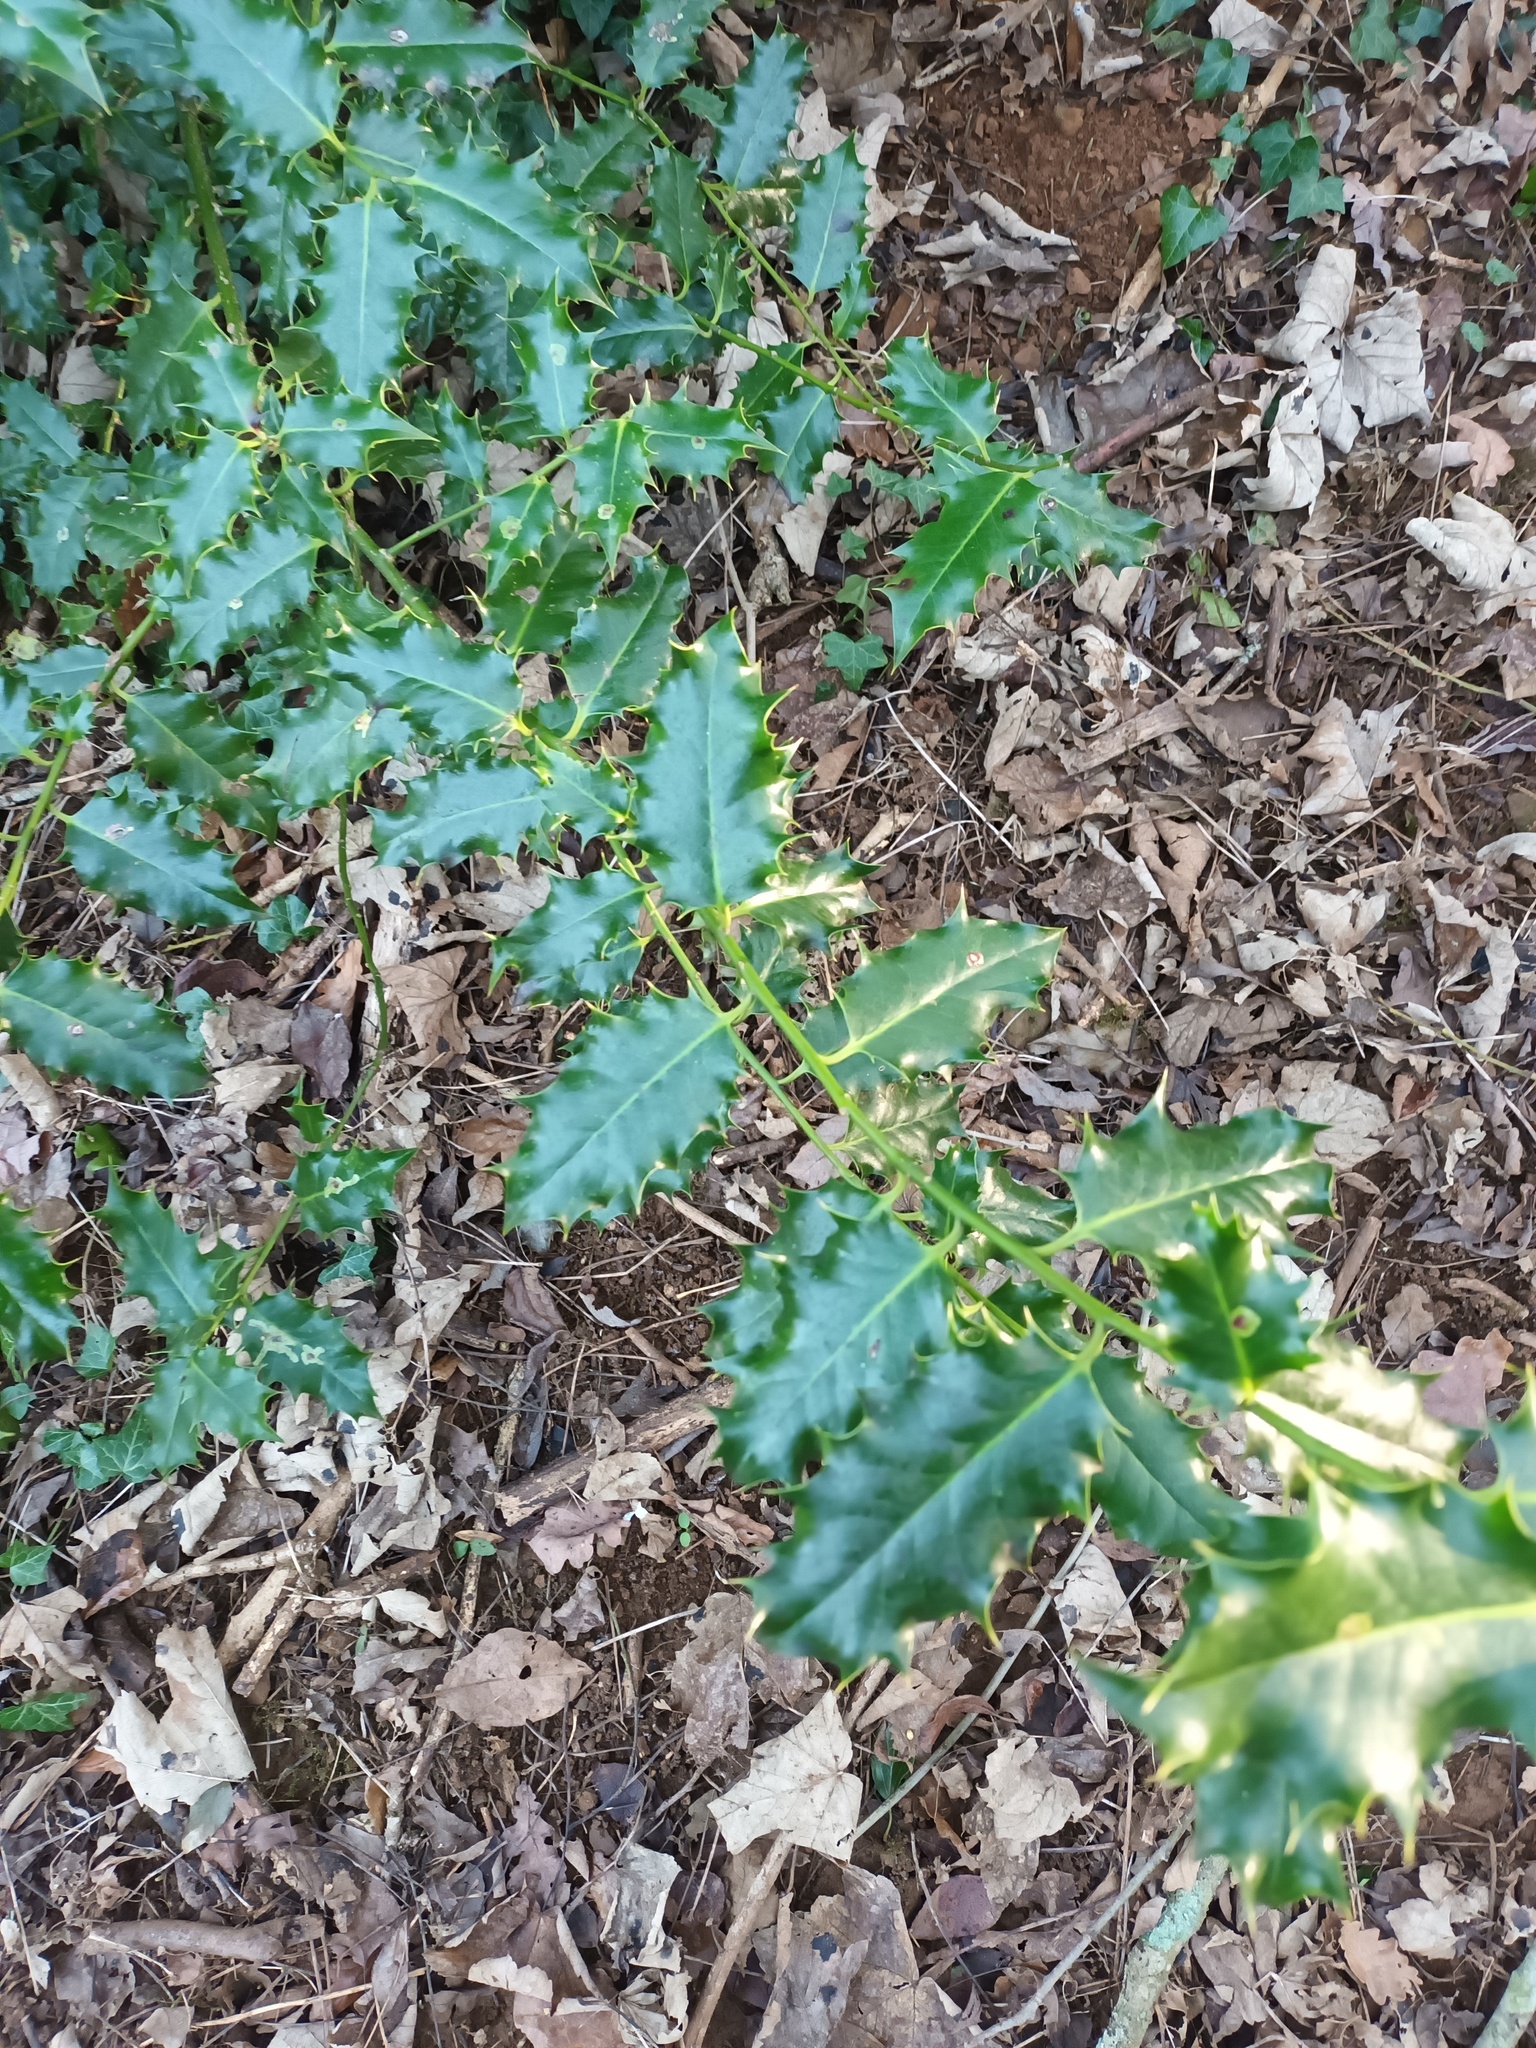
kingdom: Plantae
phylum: Tracheophyta
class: Magnoliopsida
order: Aquifoliales
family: Aquifoliaceae
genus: Ilex
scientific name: Ilex aquifolium
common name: English holly
